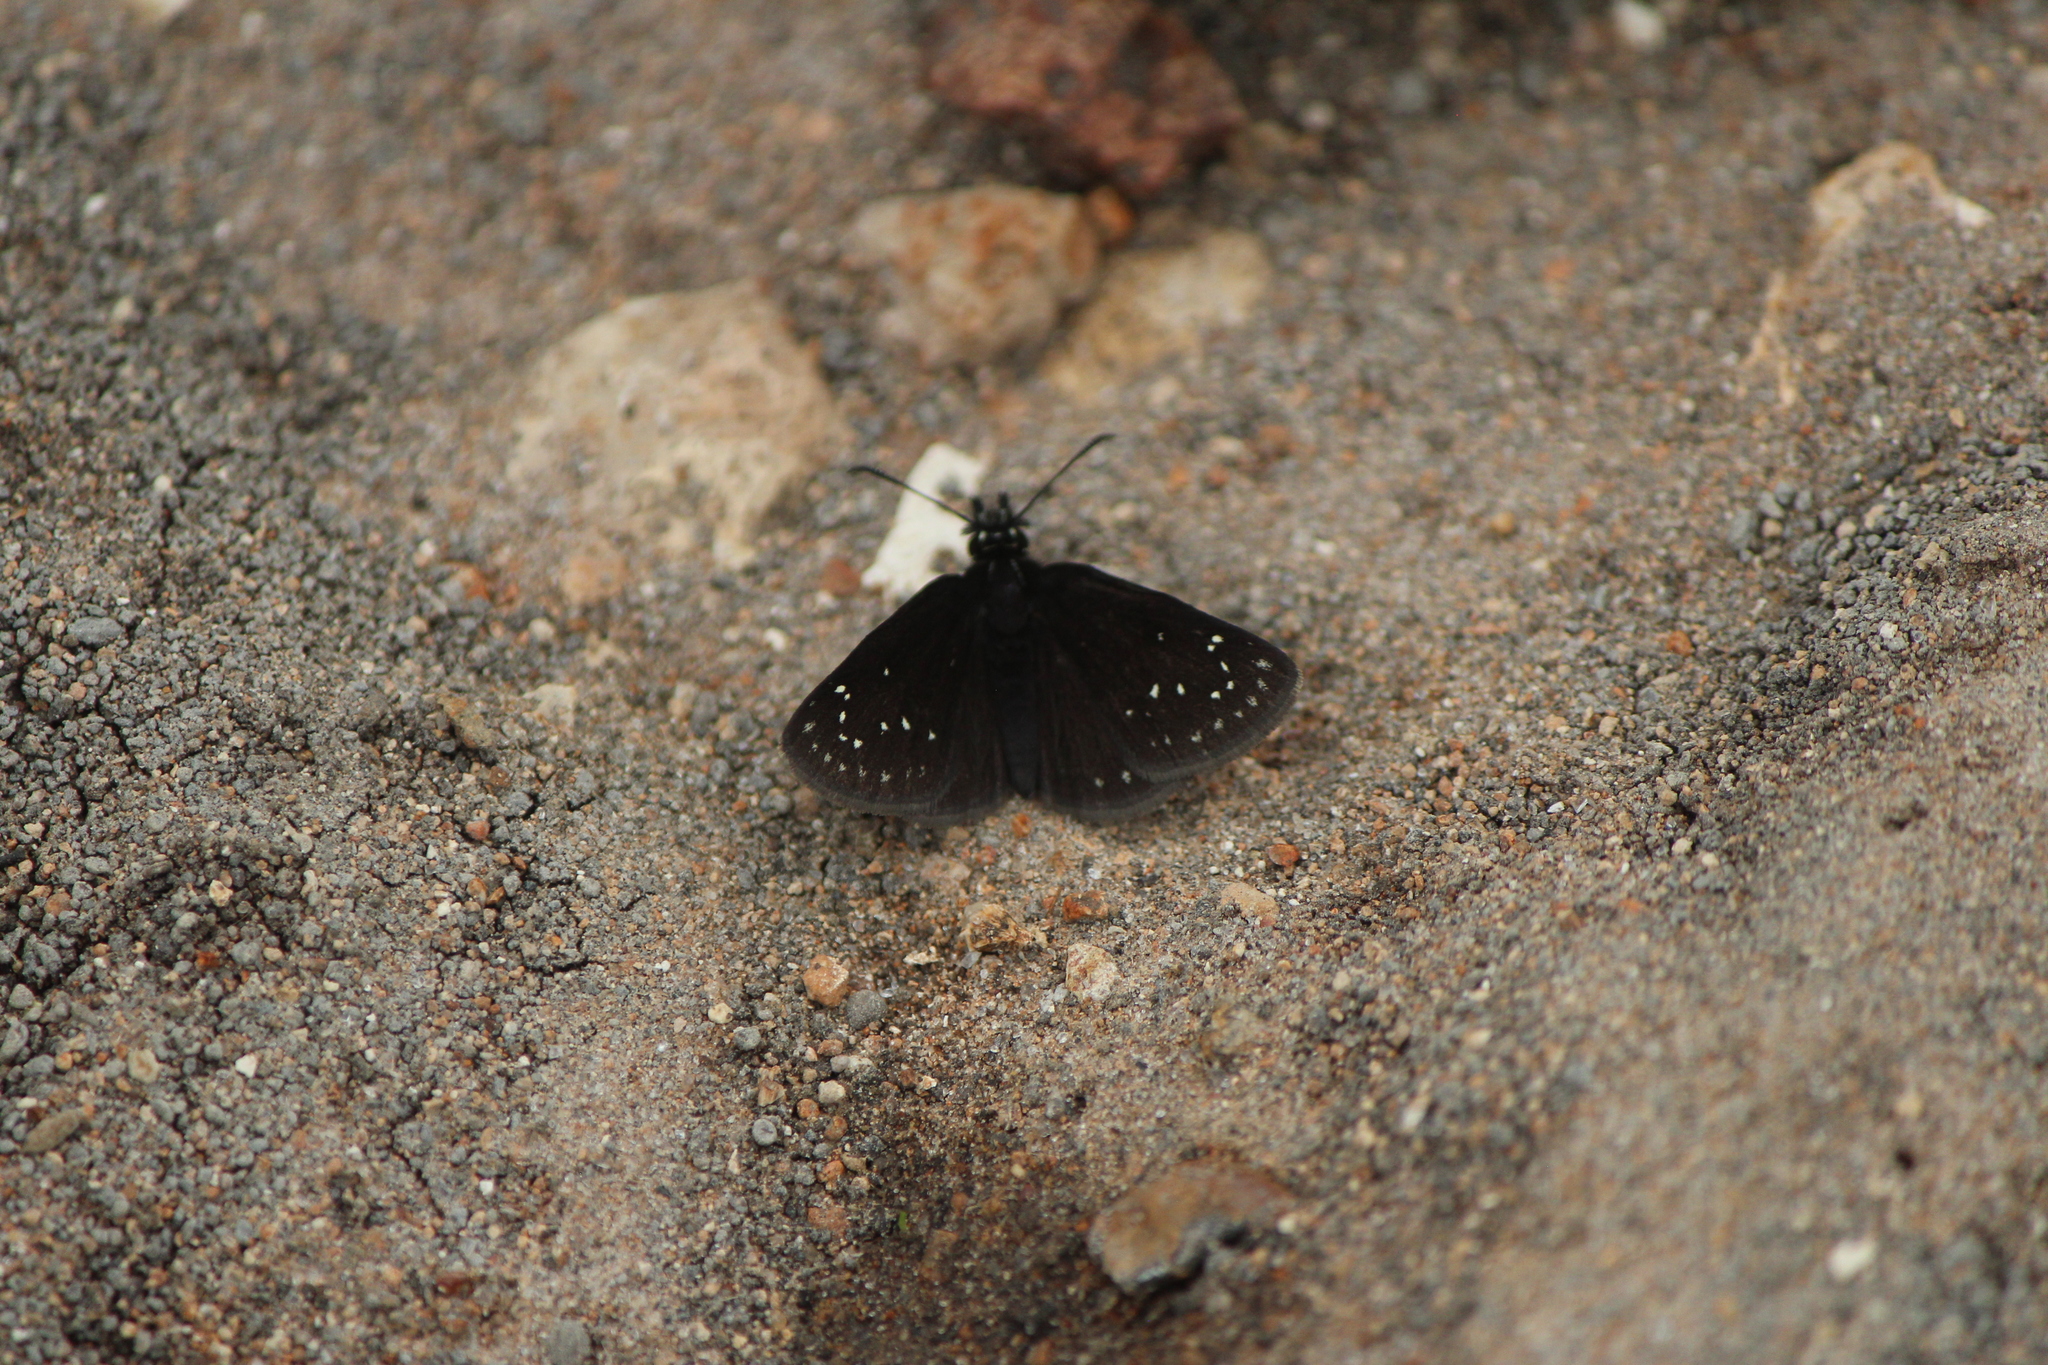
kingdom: Animalia
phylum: Arthropoda
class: Insecta
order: Lepidoptera
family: Hesperiidae
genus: Pholisora
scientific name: Pholisora mejicanus
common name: Mexican sootywing
